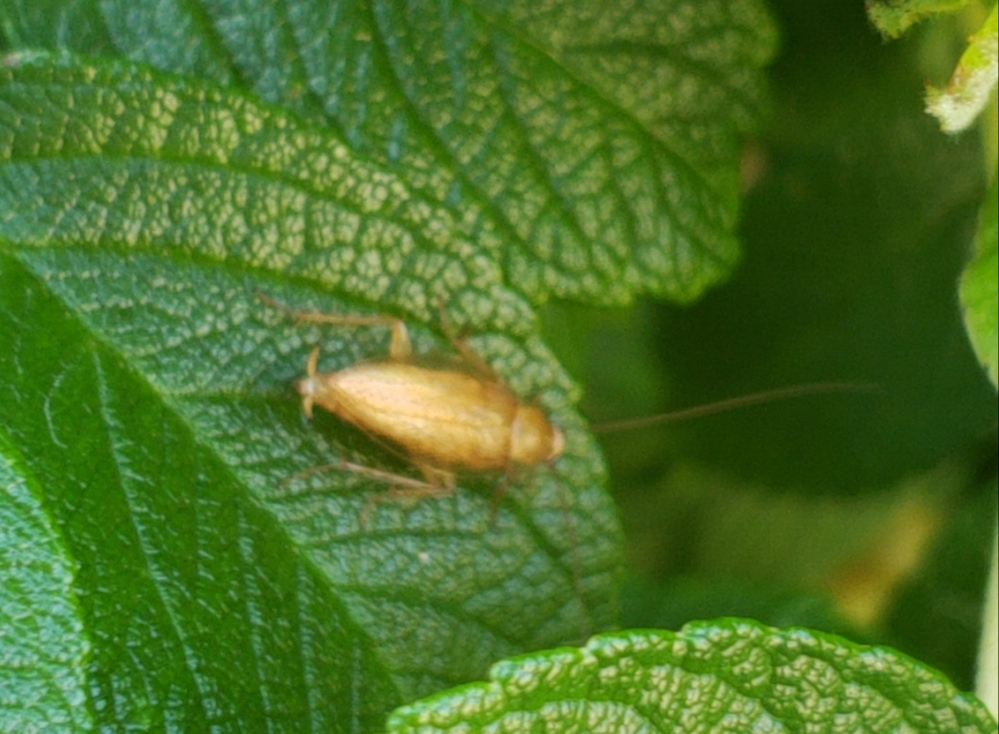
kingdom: Animalia
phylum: Arthropoda
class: Insecta
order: Blattodea
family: Ectobiidae
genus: Ectobius
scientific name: Ectobius pallidus
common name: Tawny cockroach
